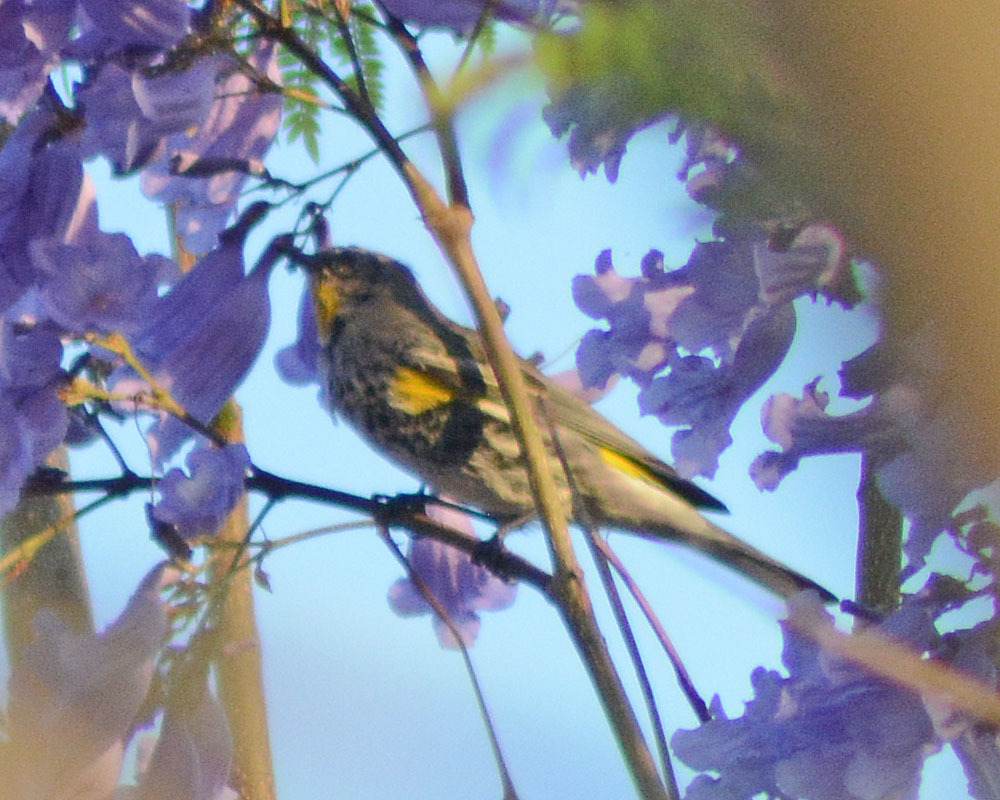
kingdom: Animalia
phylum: Chordata
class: Aves
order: Passeriformes
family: Parulidae
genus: Setophaga
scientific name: Setophaga auduboni
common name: Audubon's warbler
